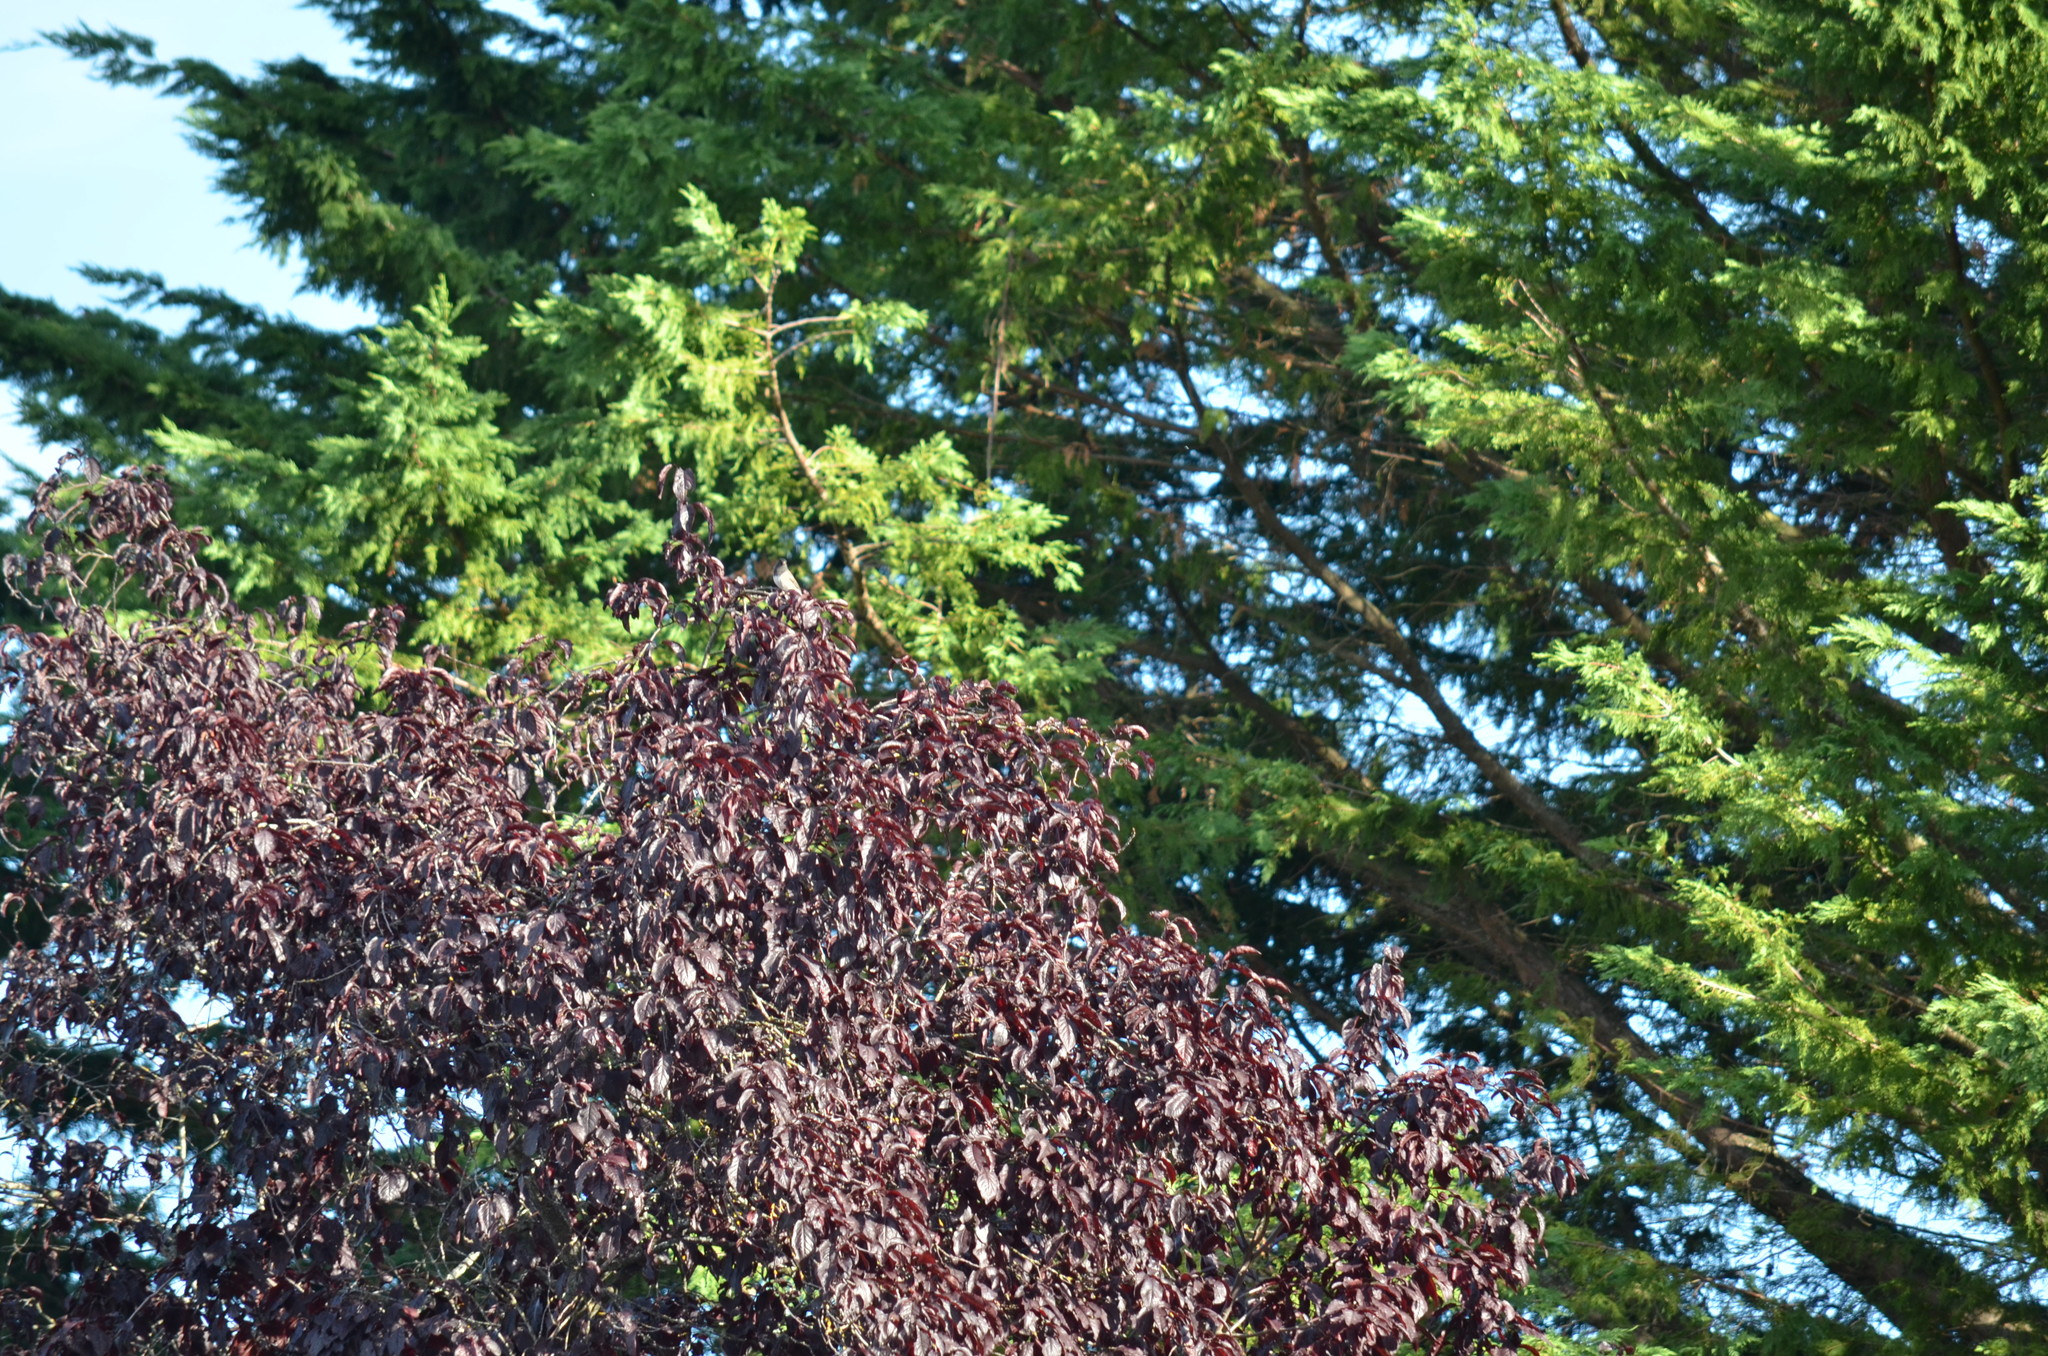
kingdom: Animalia
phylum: Chordata
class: Aves
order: Passeriformes
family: Passerellidae
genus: Junco
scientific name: Junco hyemalis
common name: Dark-eyed junco
